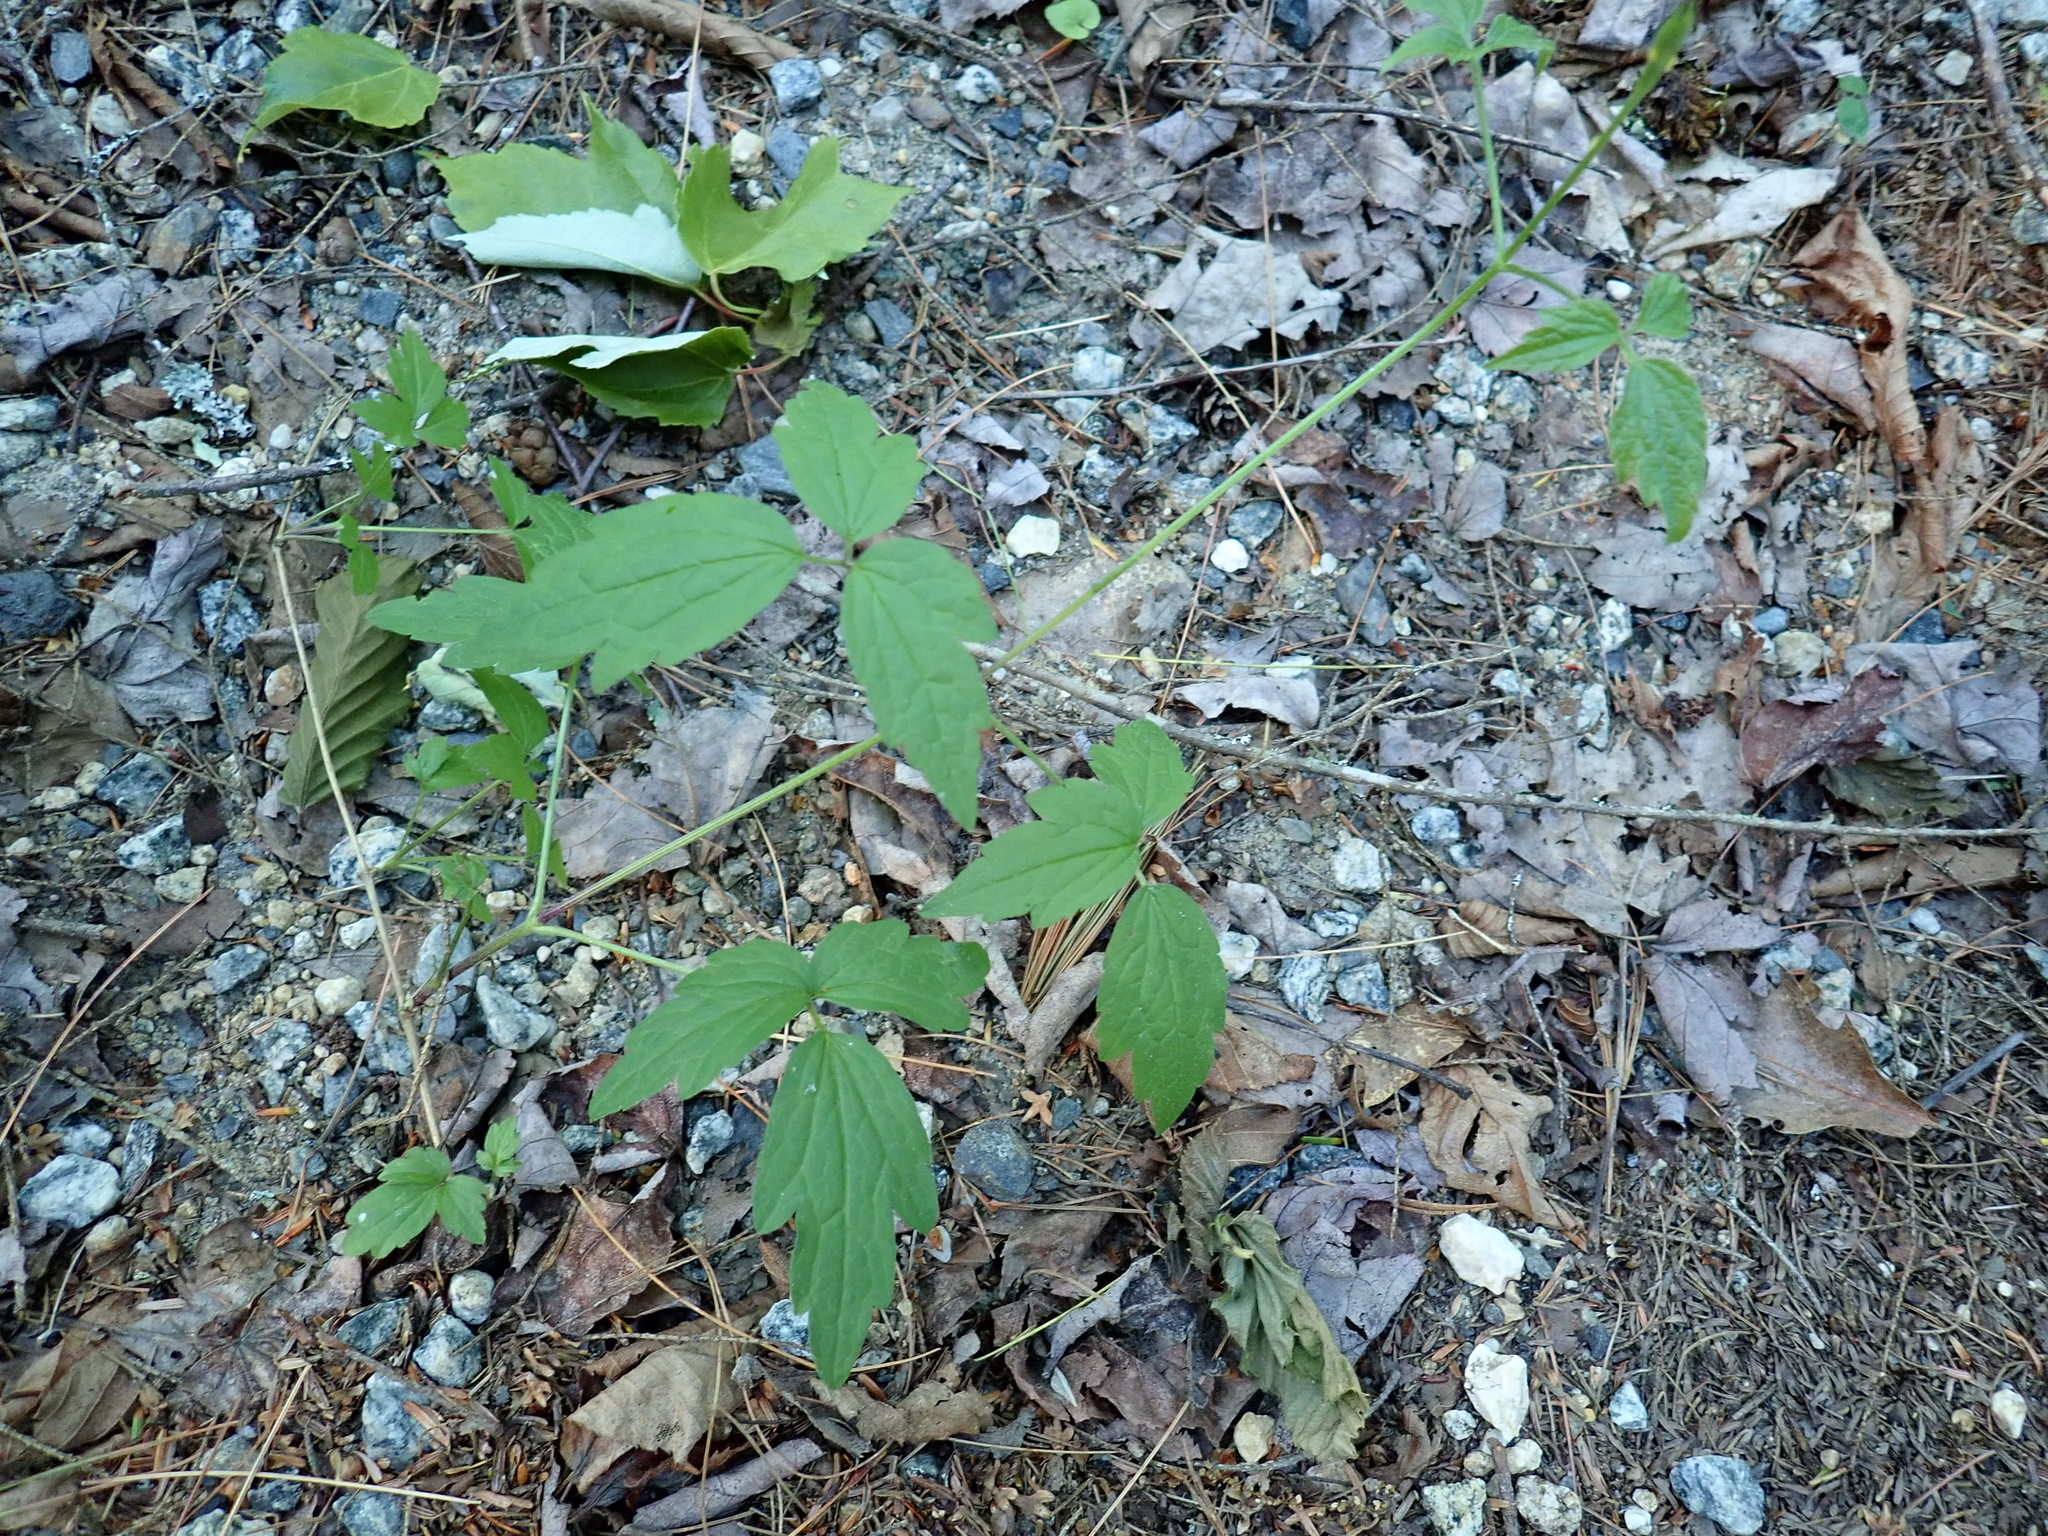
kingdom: Plantae
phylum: Tracheophyta
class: Magnoliopsida
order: Ranunculales
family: Ranunculaceae
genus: Clematis
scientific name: Clematis virginiana
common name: Virgin's-bower
